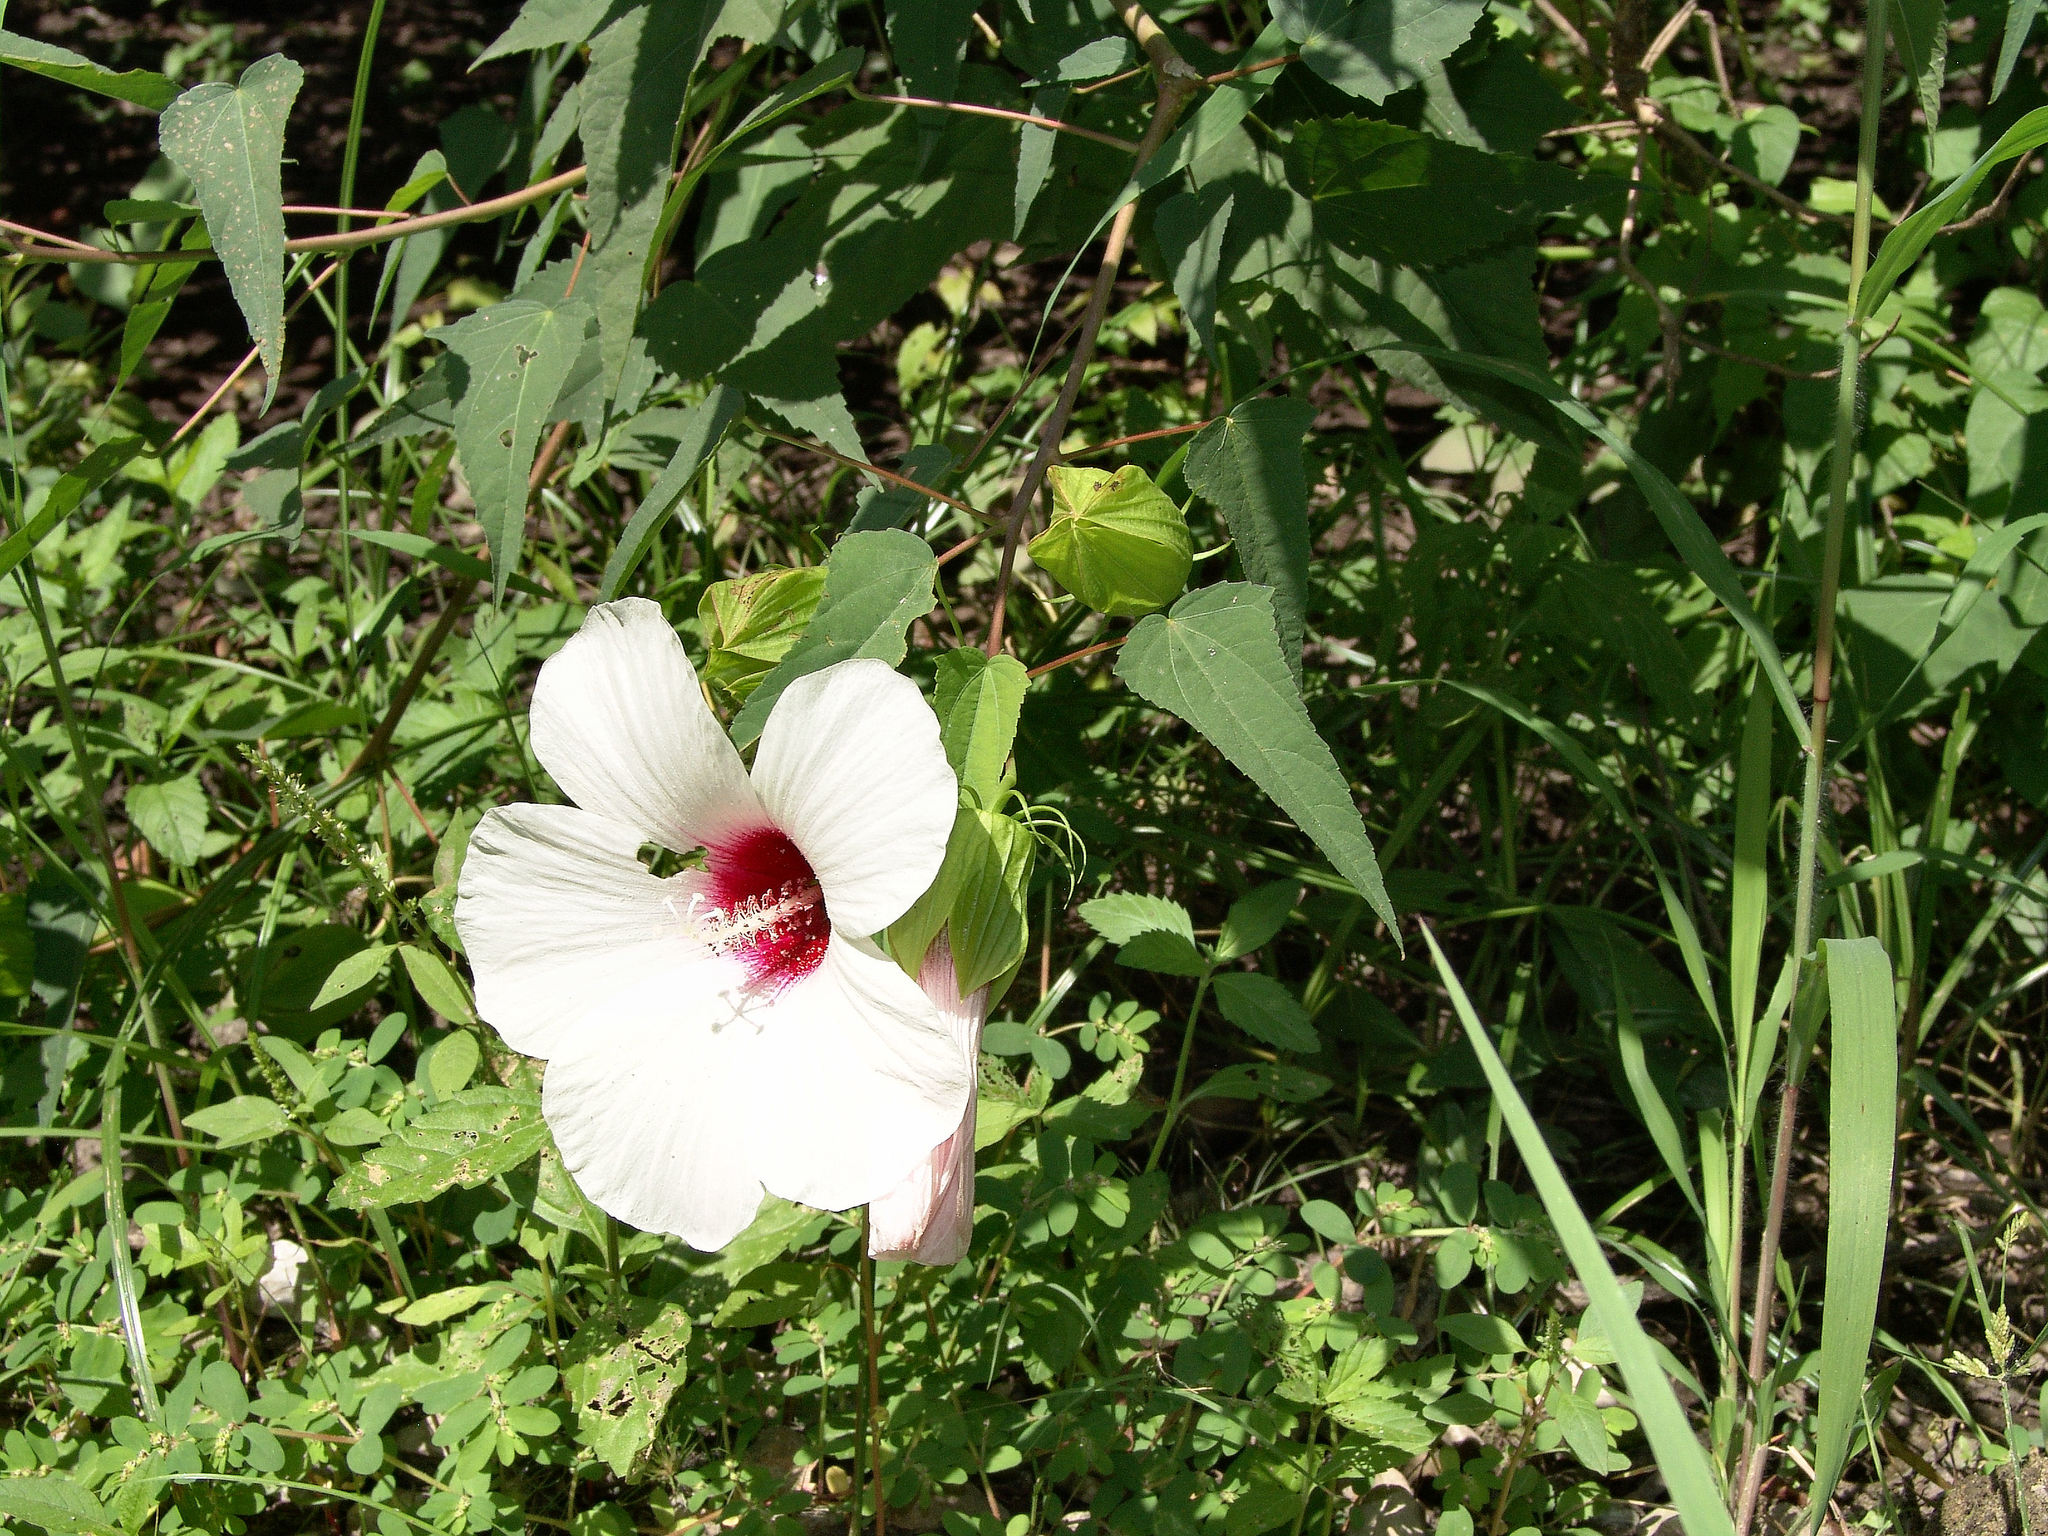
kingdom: Plantae
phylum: Tracheophyta
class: Magnoliopsida
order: Malvales
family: Malvaceae
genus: Hibiscus
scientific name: Hibiscus laevis
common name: Scarlet rose-mallow
